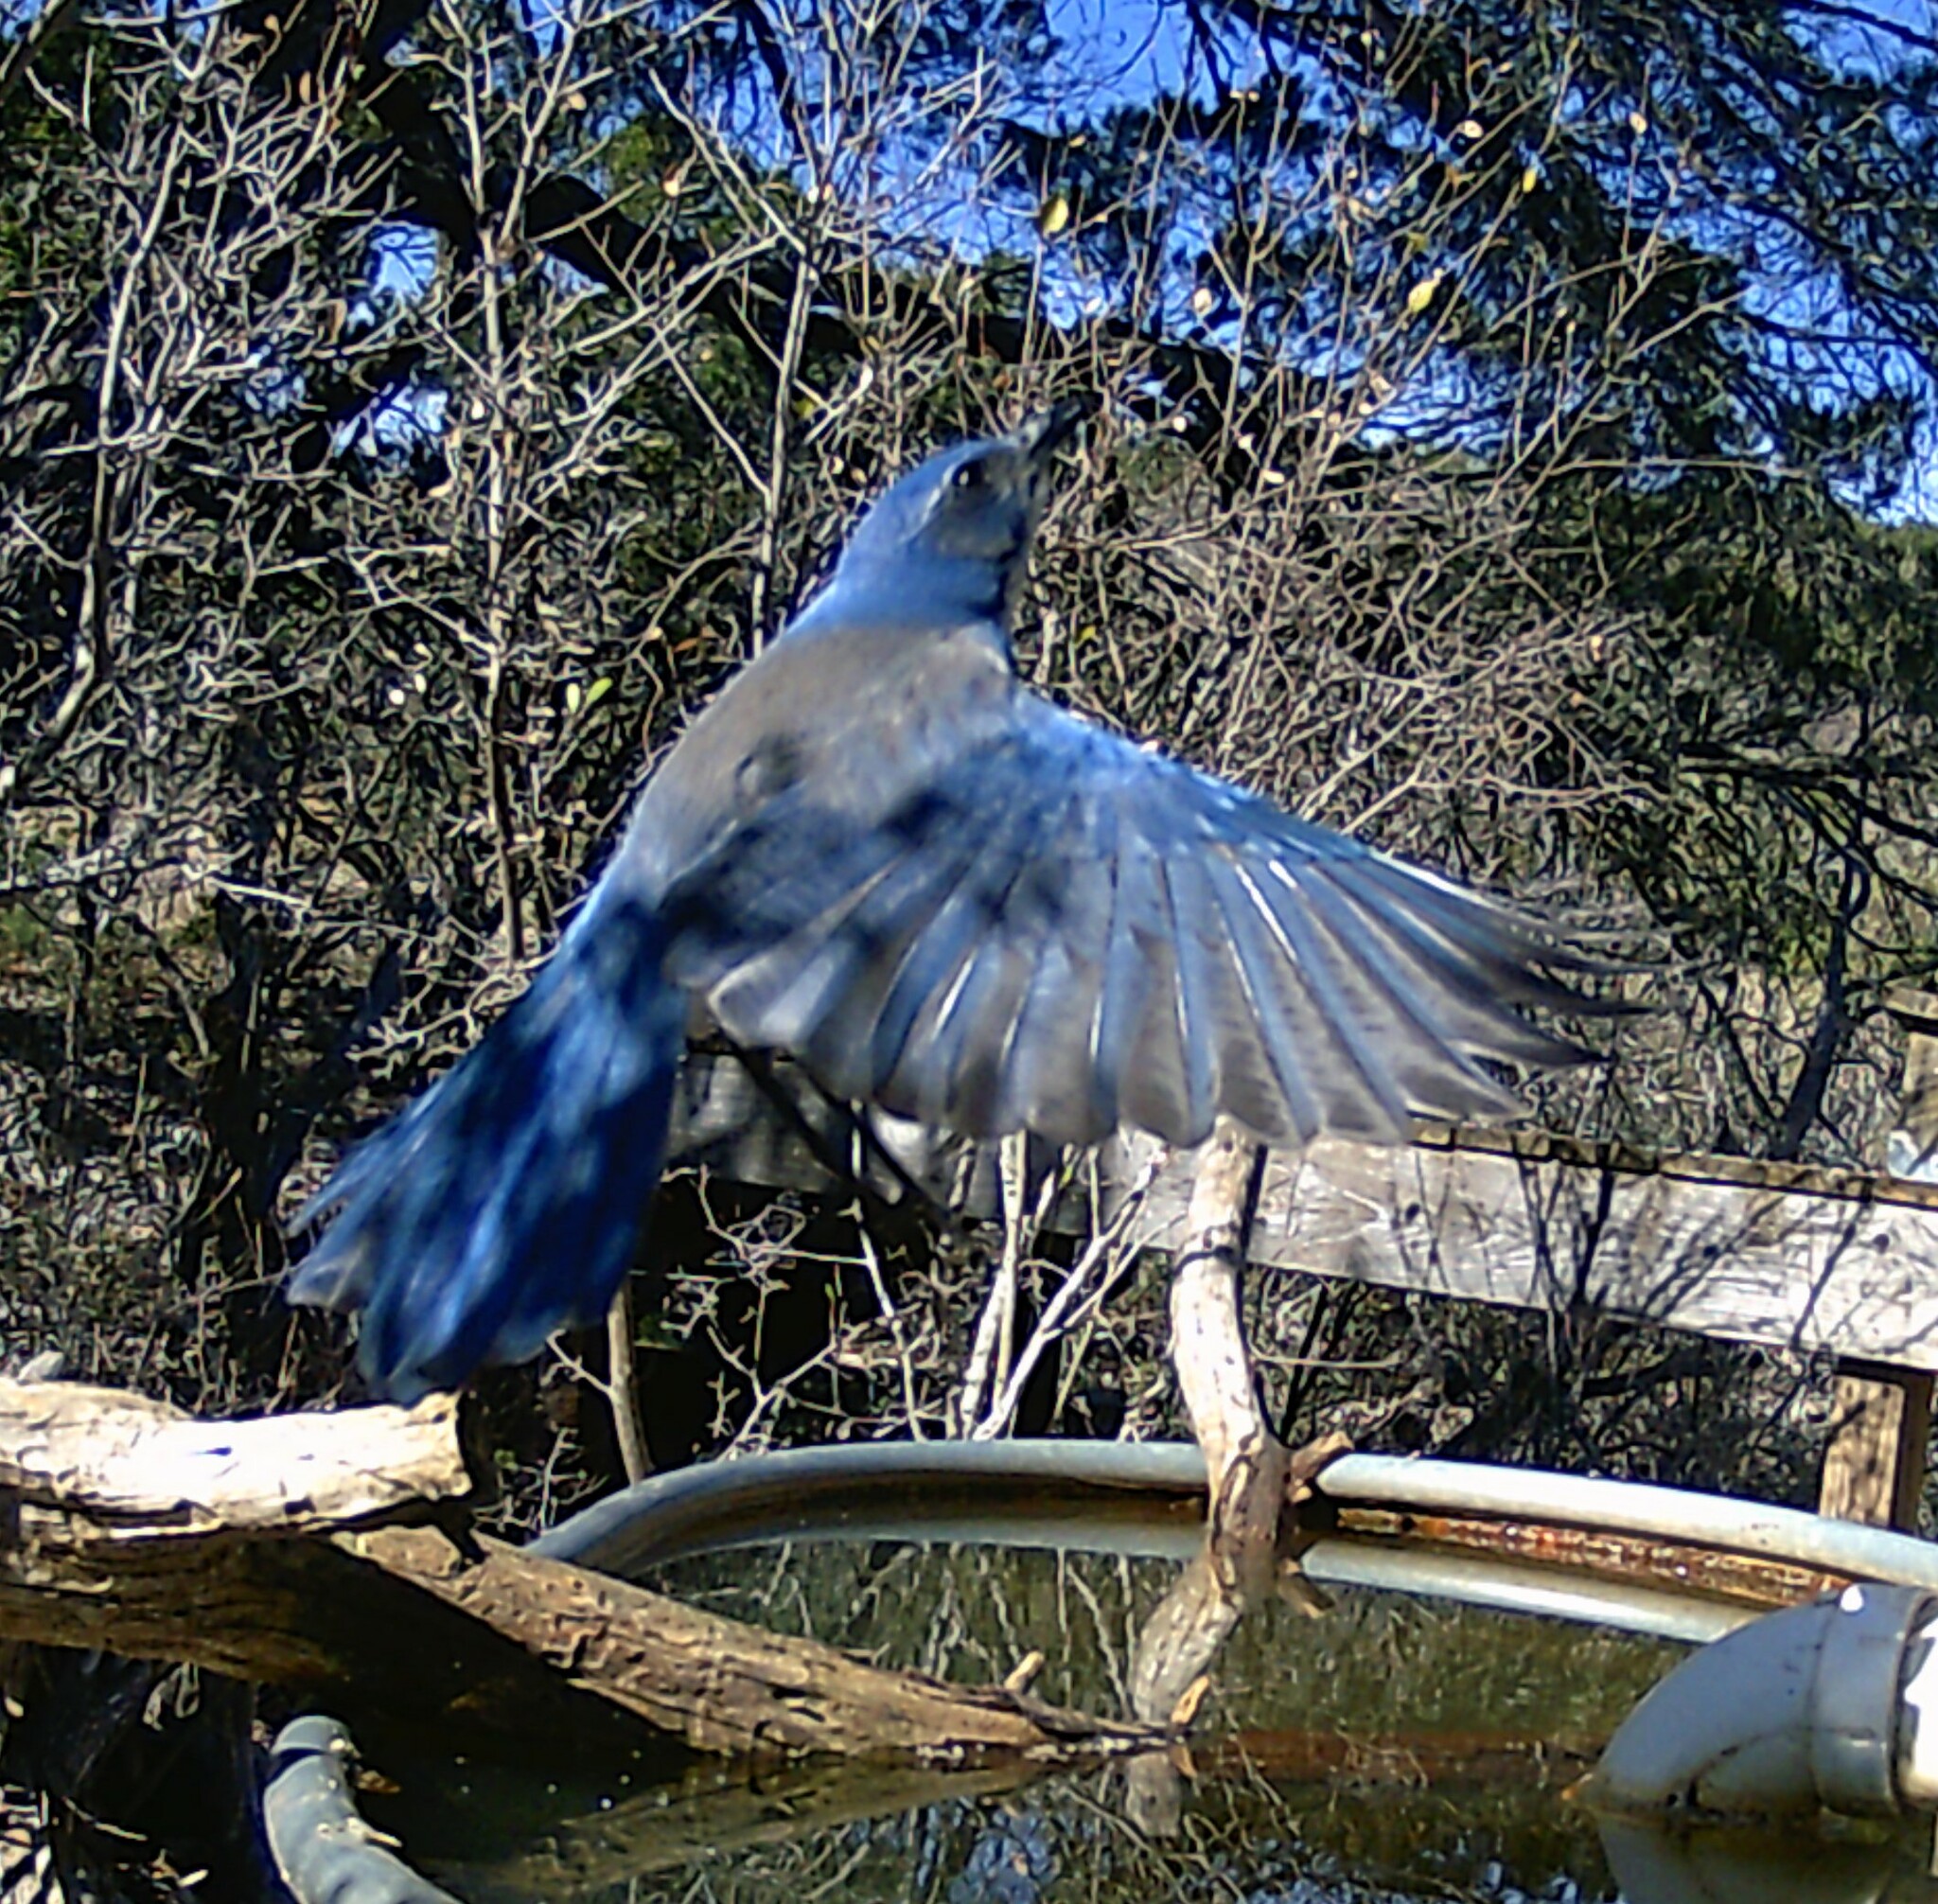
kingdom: Animalia
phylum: Chordata
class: Aves
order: Passeriformes
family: Corvidae
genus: Aphelocoma
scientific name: Aphelocoma woodhouseii
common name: Woodhouse's scrub-jay
